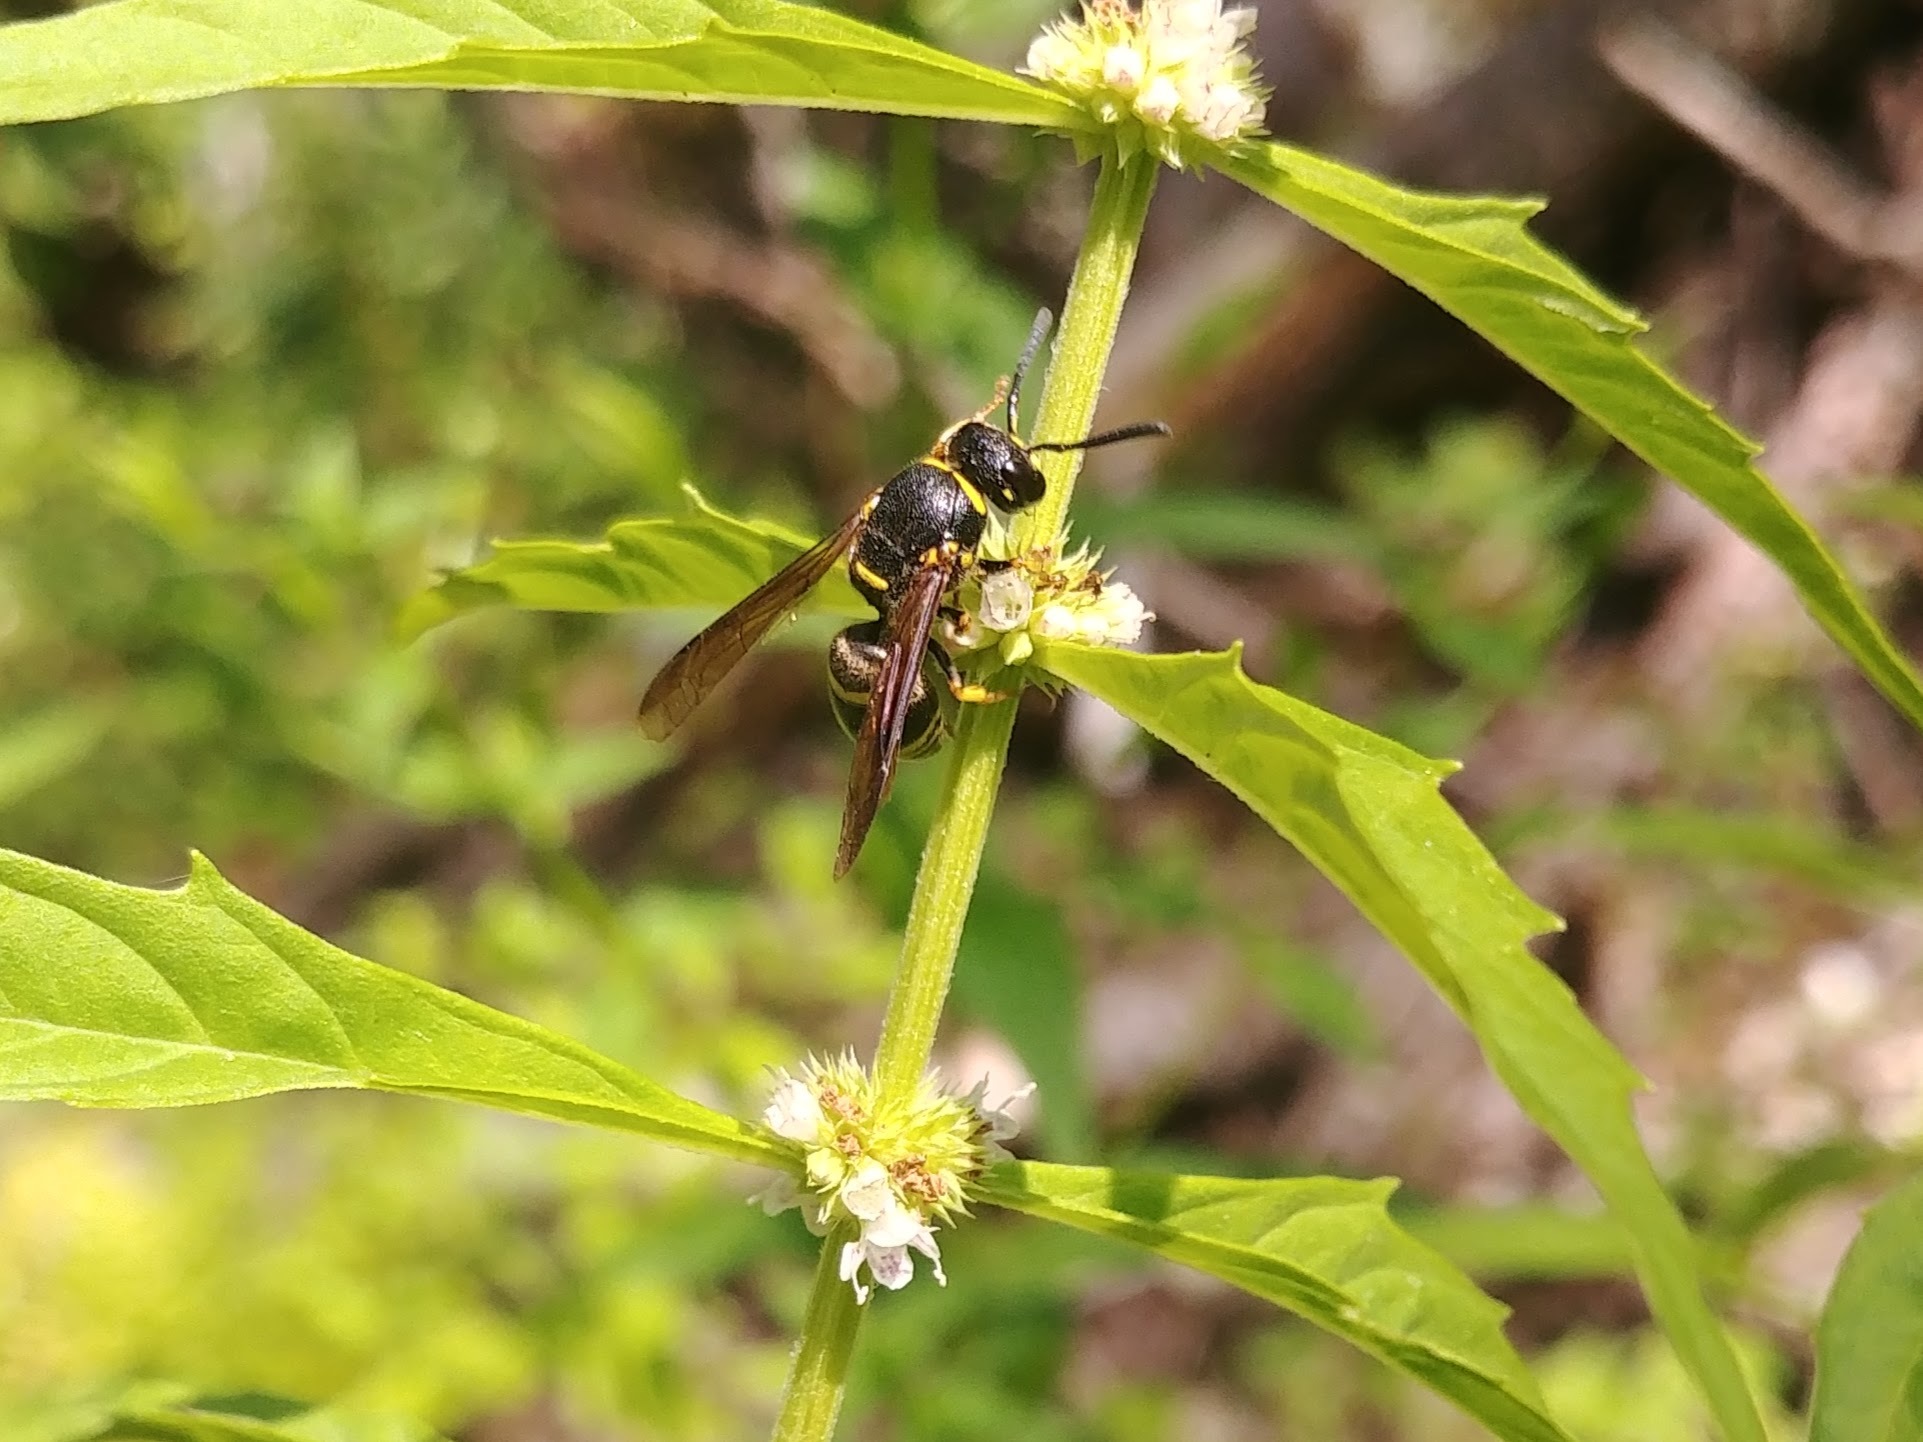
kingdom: Animalia
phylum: Arthropoda
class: Insecta
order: Hymenoptera
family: Eumenidae
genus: Euodynerus
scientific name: Euodynerus foraminatus
